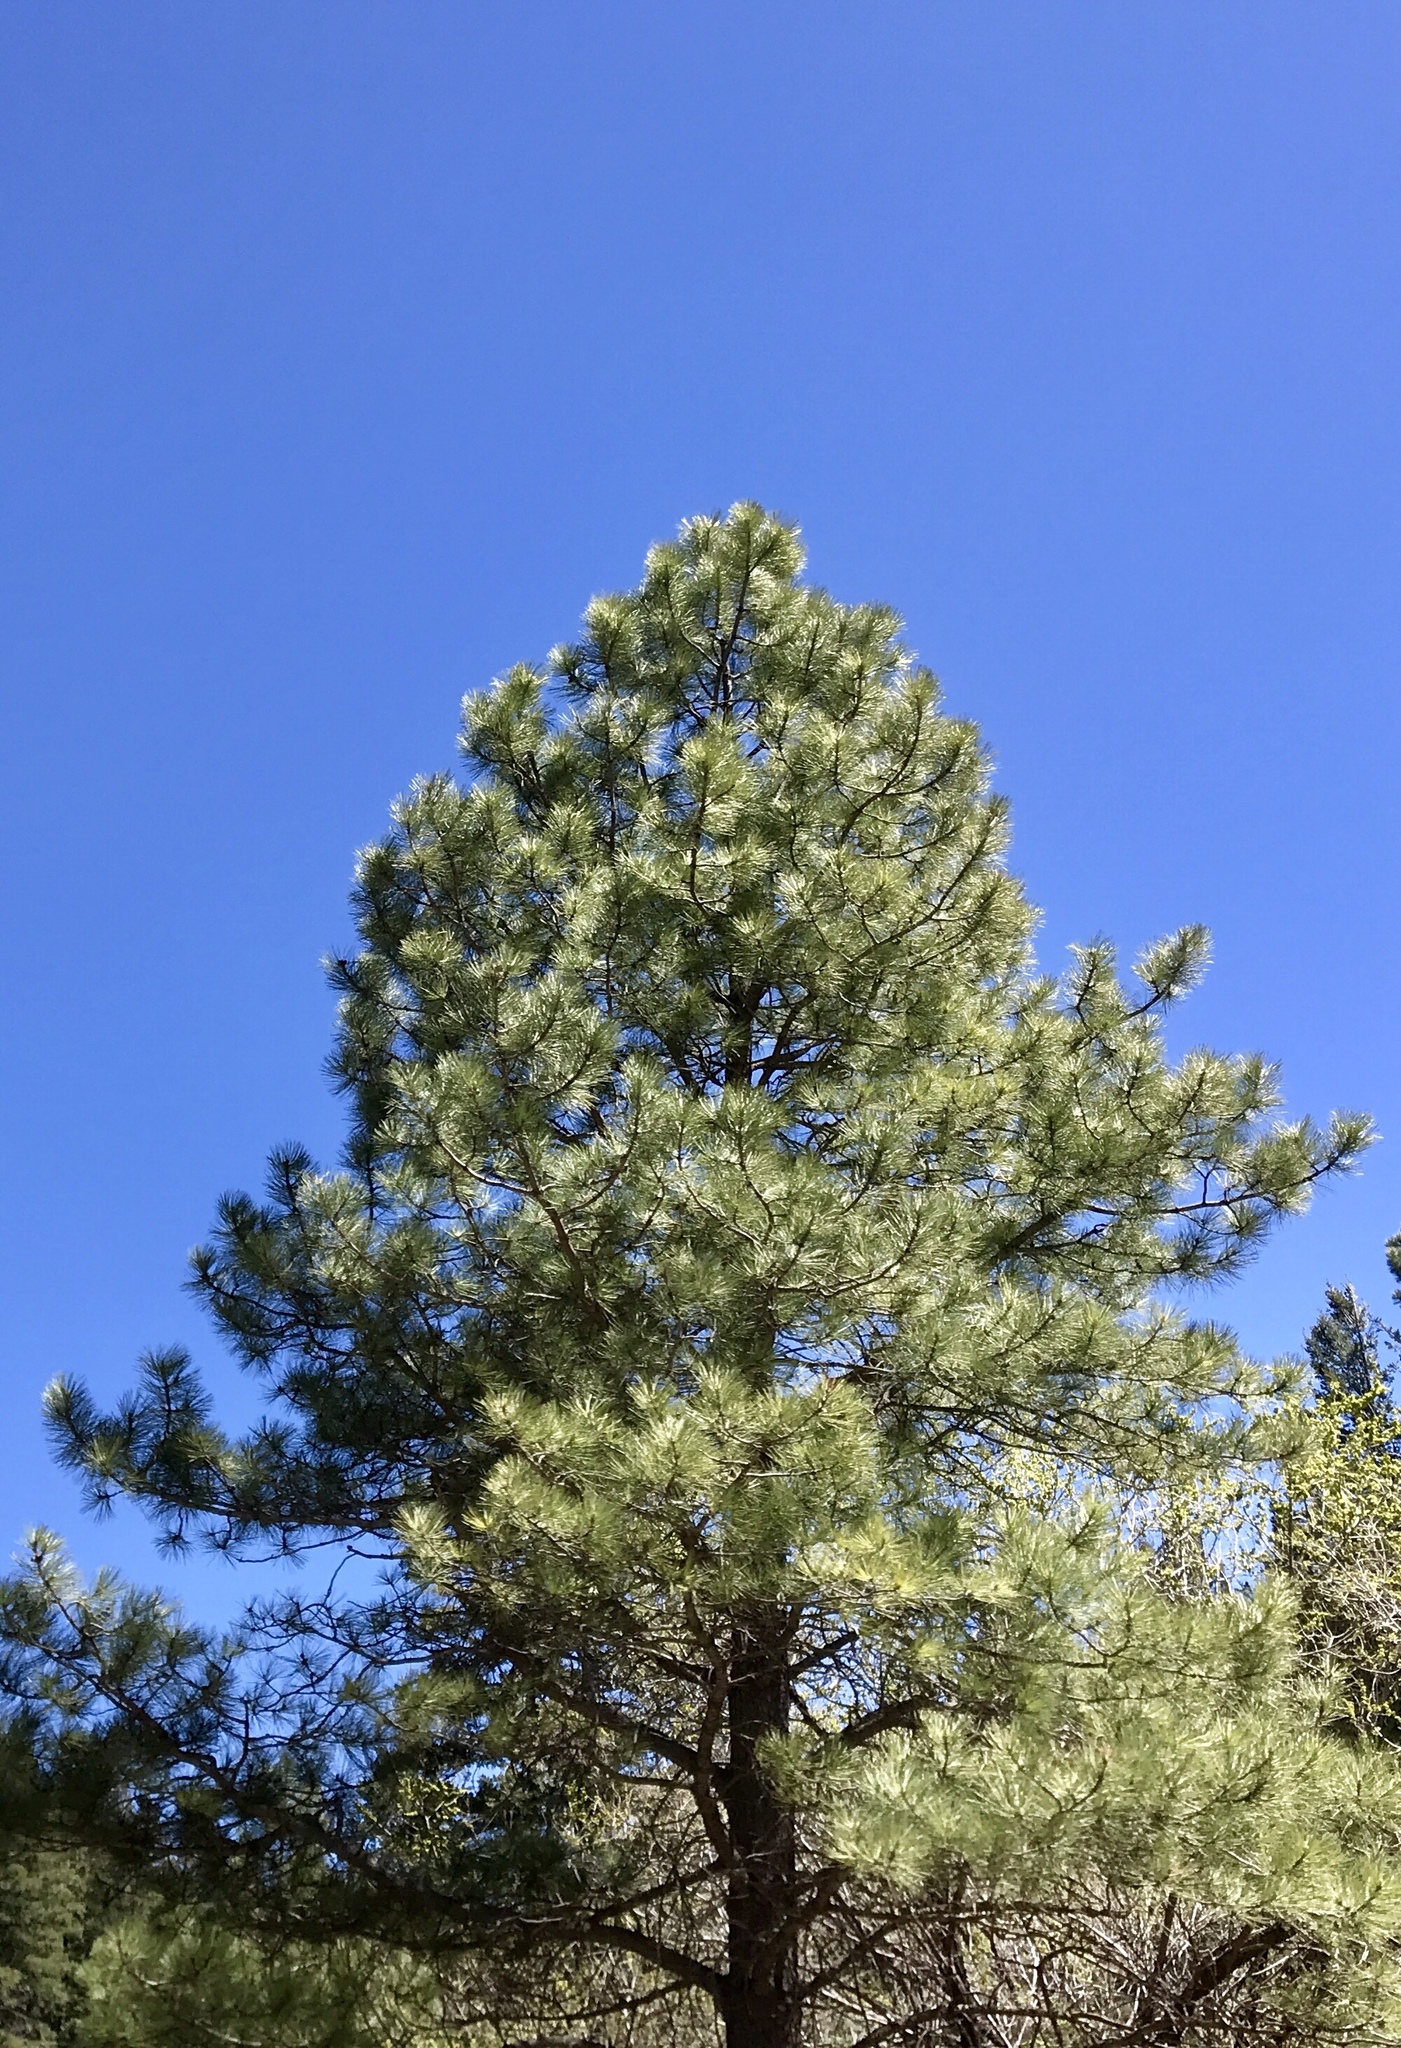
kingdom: Plantae
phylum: Tracheophyta
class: Pinopsida
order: Pinales
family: Pinaceae
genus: Pinus
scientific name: Pinus ponderosa
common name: Western yellow-pine
